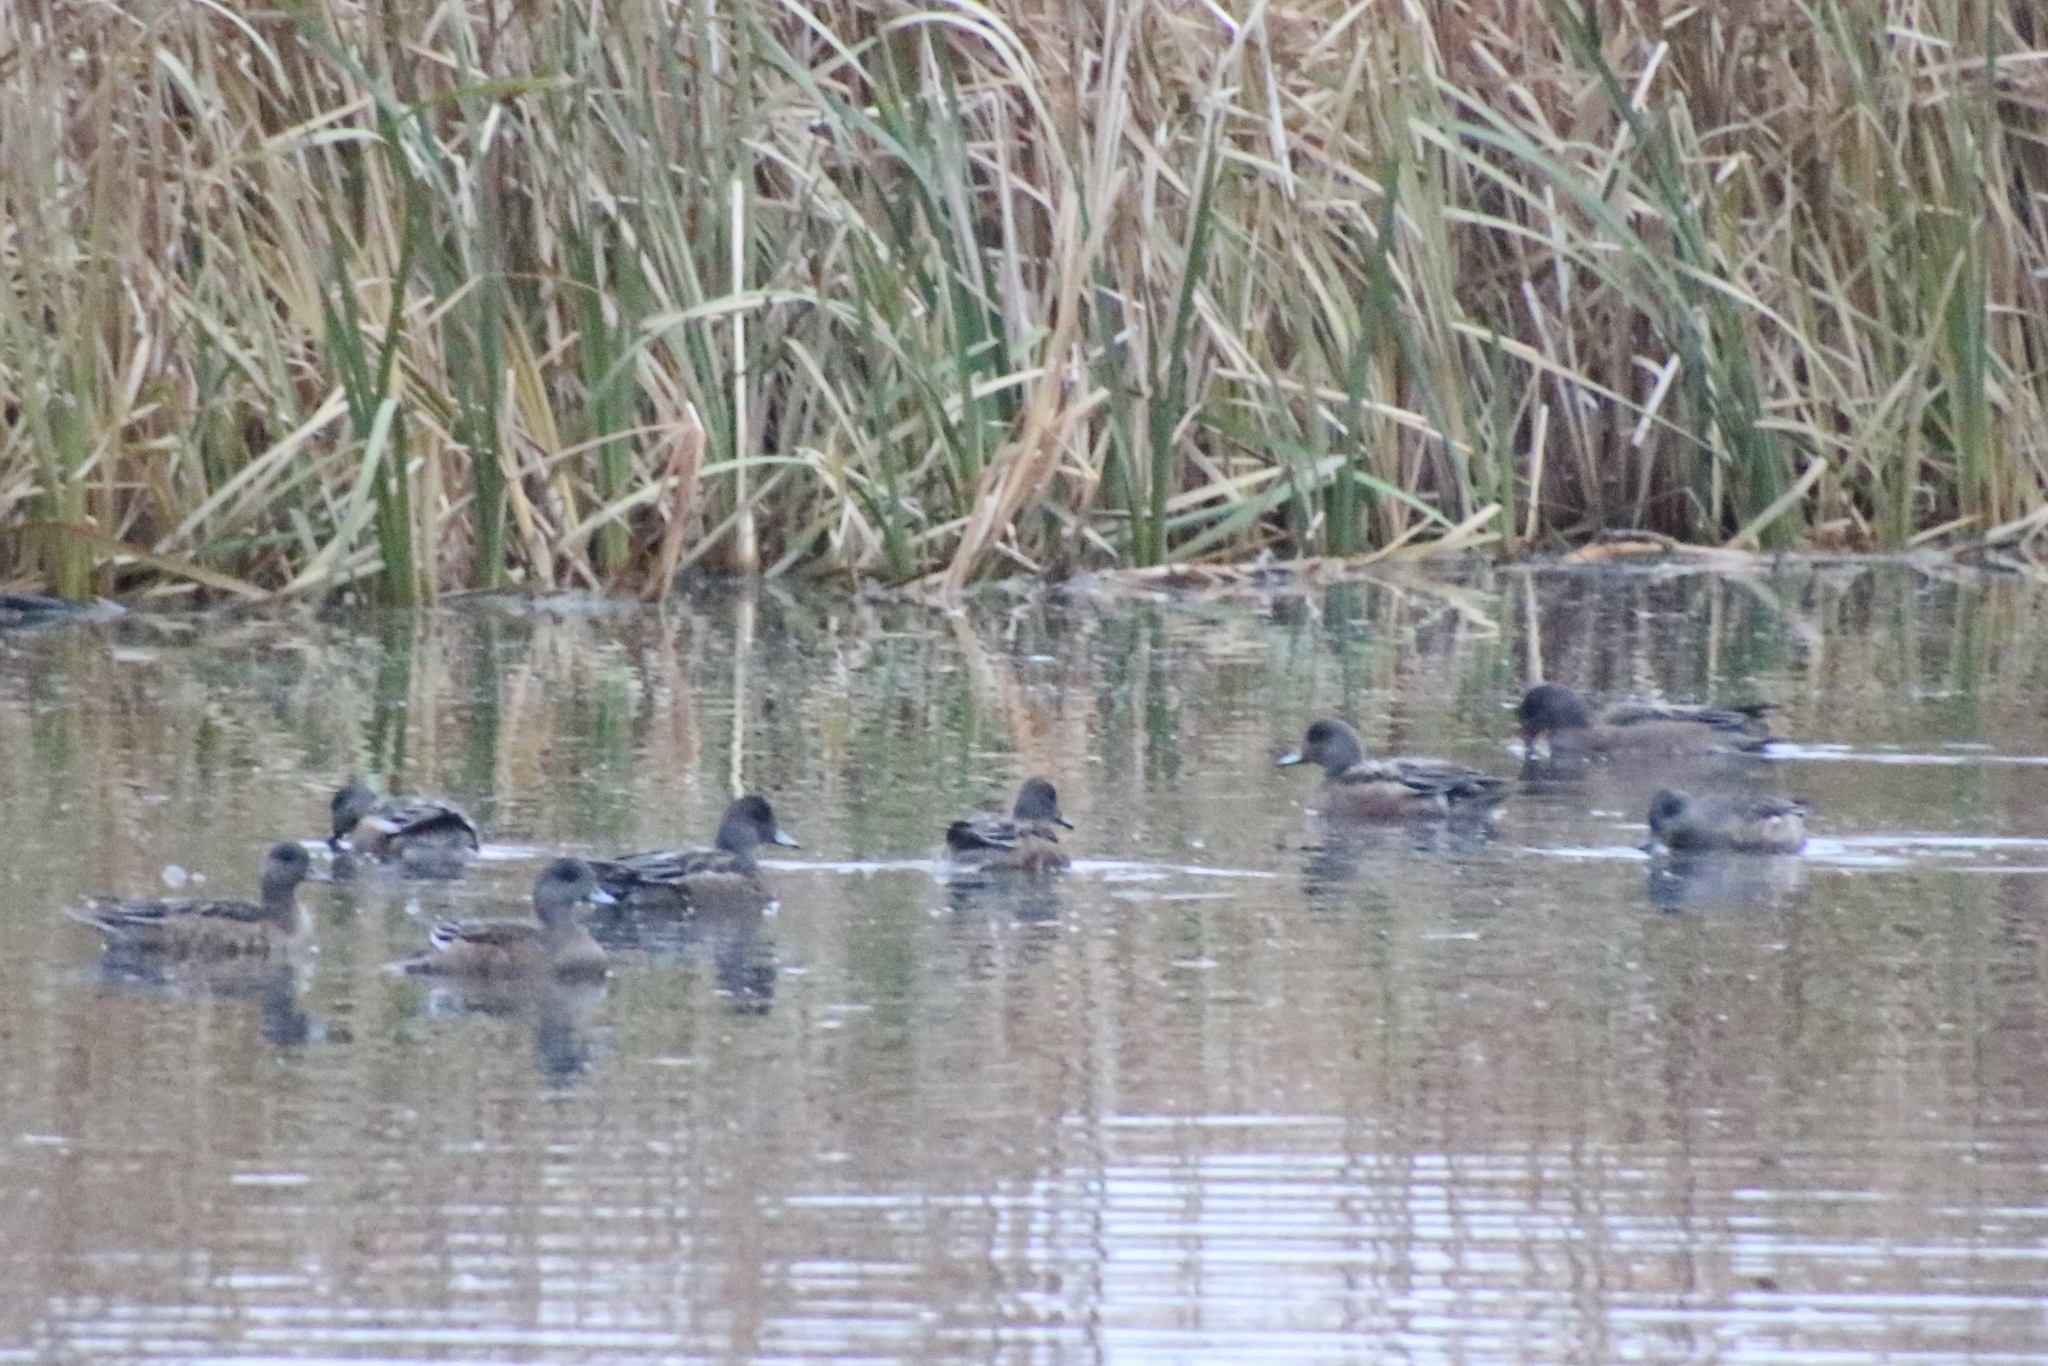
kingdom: Animalia
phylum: Chordata
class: Aves
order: Anseriformes
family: Anatidae
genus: Mareca
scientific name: Mareca americana
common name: American wigeon
